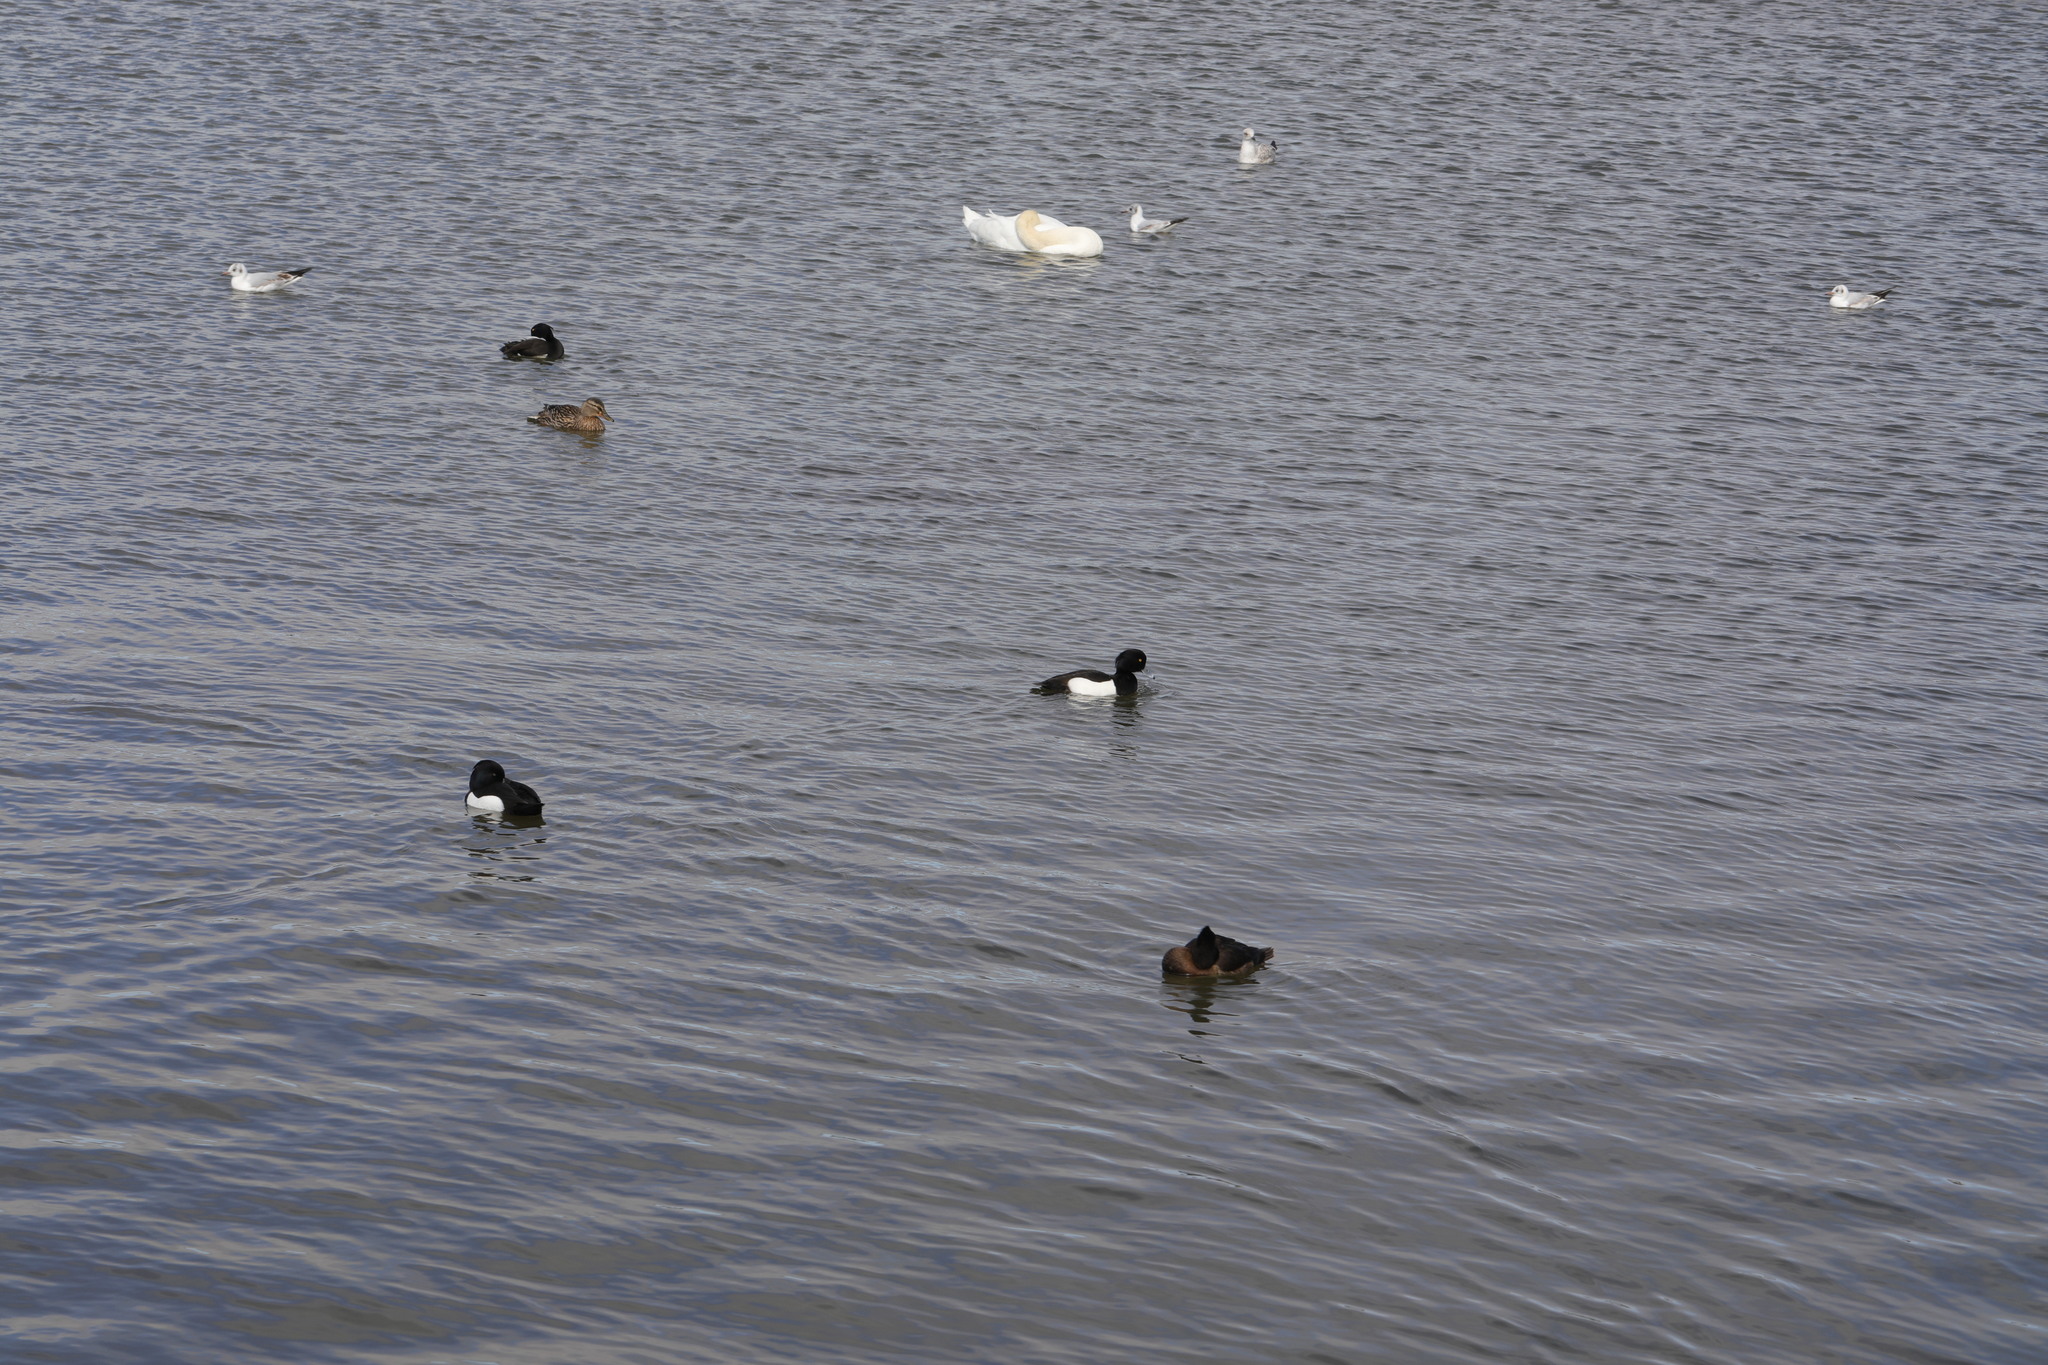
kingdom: Animalia
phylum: Chordata
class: Aves
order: Anseriformes
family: Anatidae
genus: Aythya
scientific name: Aythya fuligula
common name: Tufted duck
